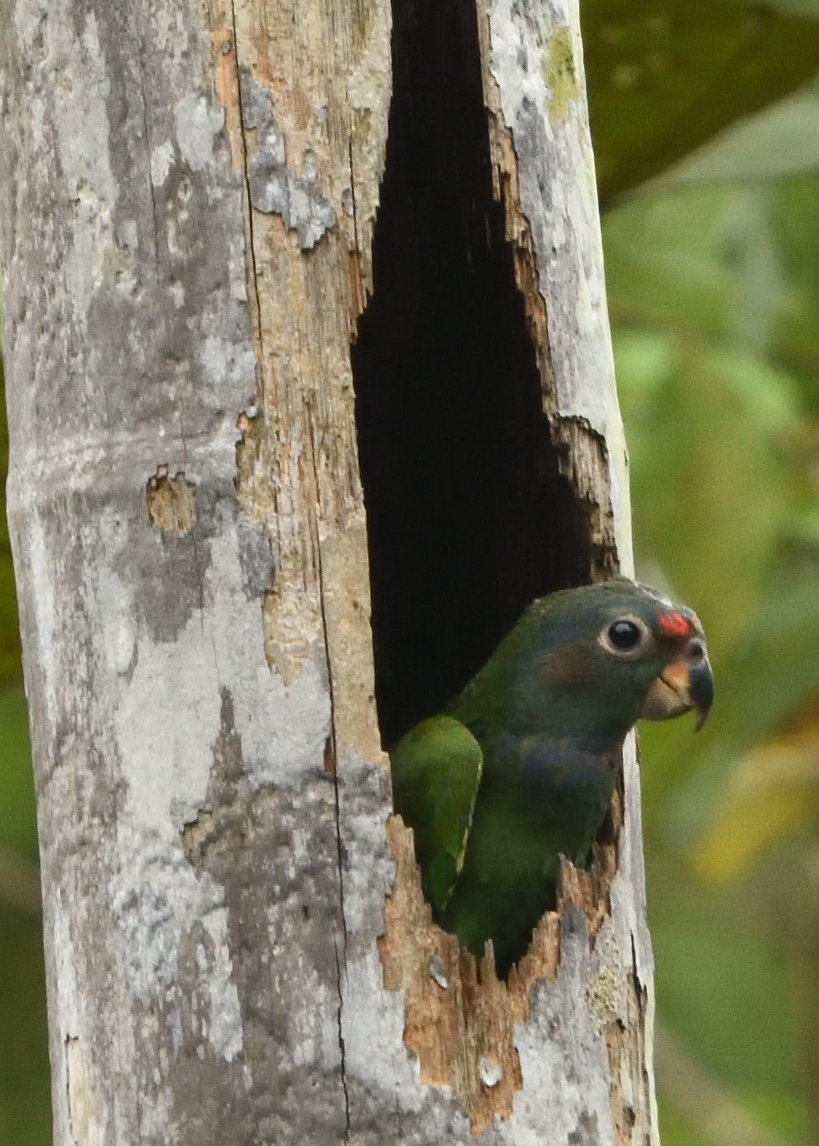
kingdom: Animalia
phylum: Chordata
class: Aves
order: Psittaciformes
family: Psittacidae
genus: Pionus
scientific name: Pionus menstruus
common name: Blue-headed parrot
